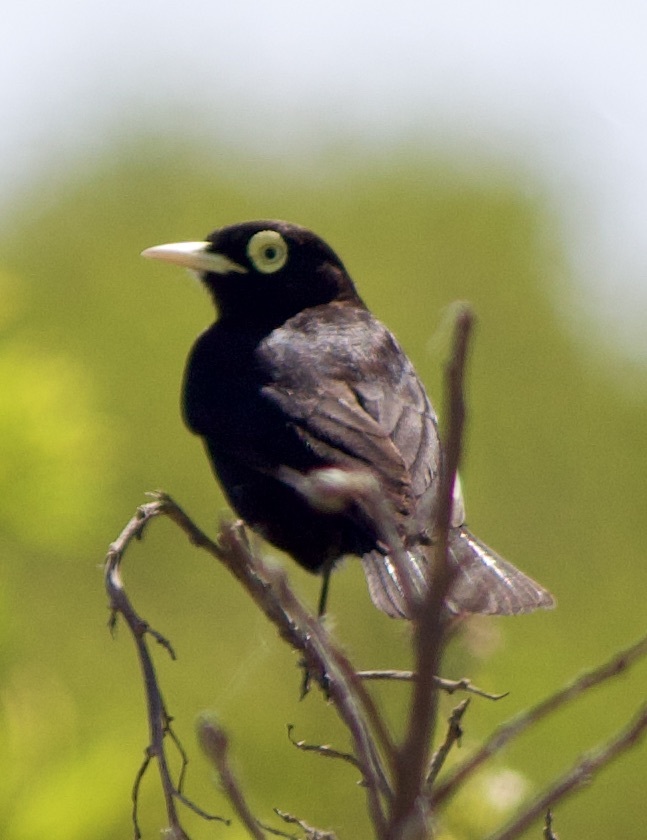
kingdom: Animalia
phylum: Chordata
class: Aves
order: Passeriformes
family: Tyrannidae
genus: Hymenops
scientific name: Hymenops perspicillatus
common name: Spectacled tyrant
